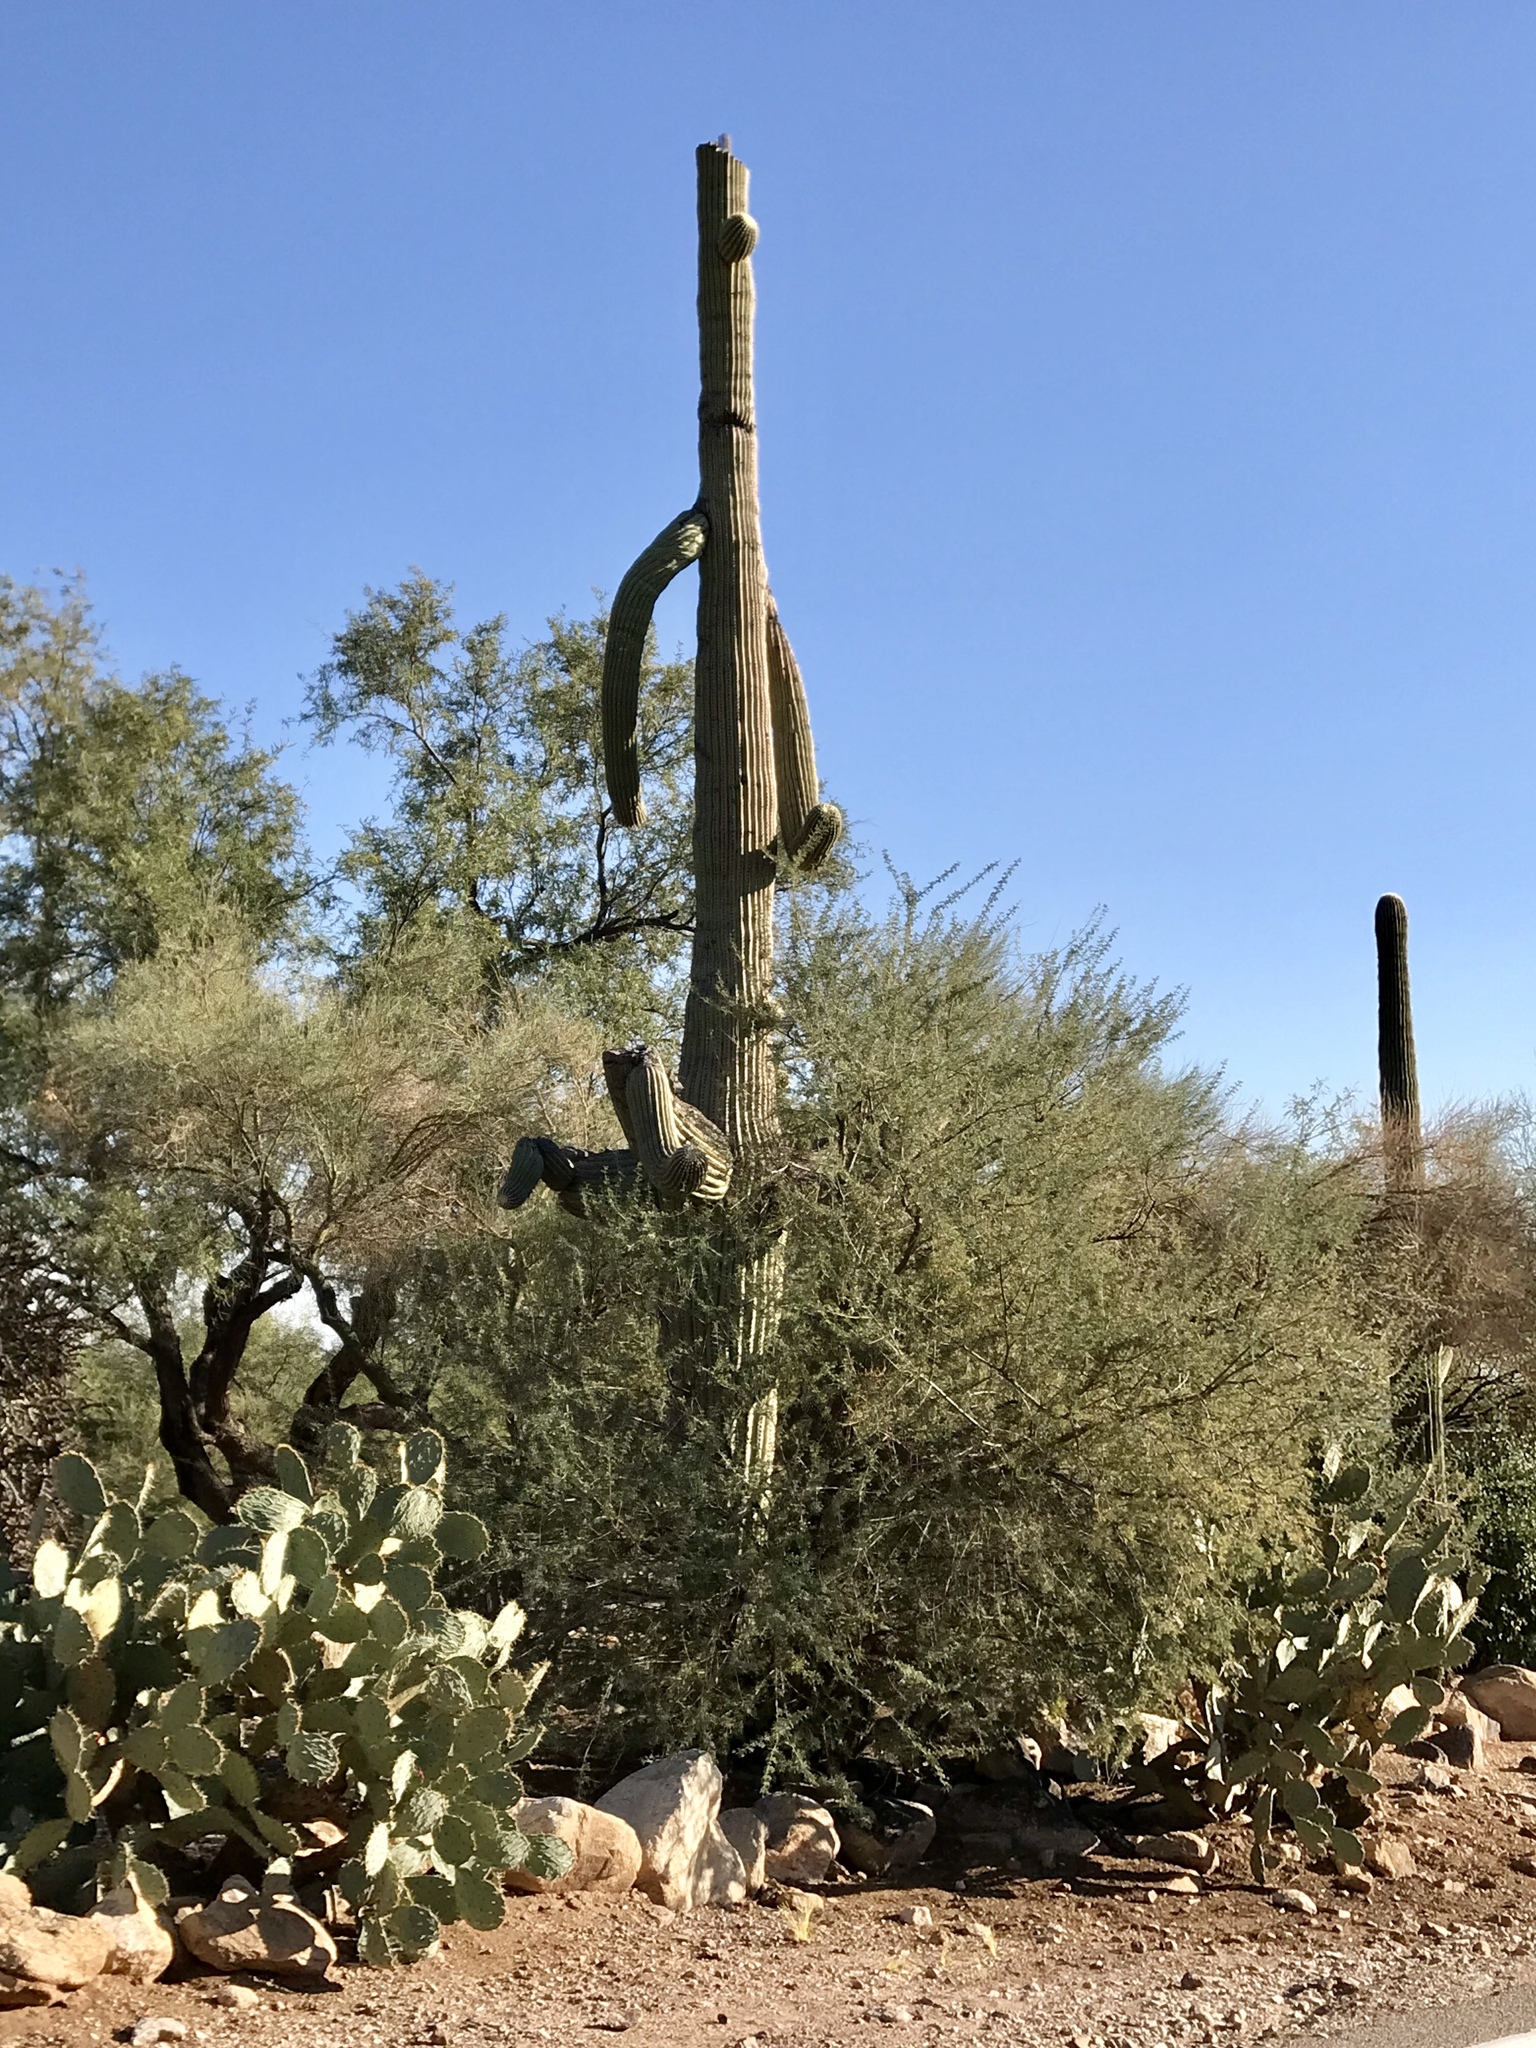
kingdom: Plantae
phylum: Tracheophyta
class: Magnoliopsida
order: Caryophyllales
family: Cactaceae
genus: Carnegiea
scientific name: Carnegiea gigantea
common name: Saguaro
